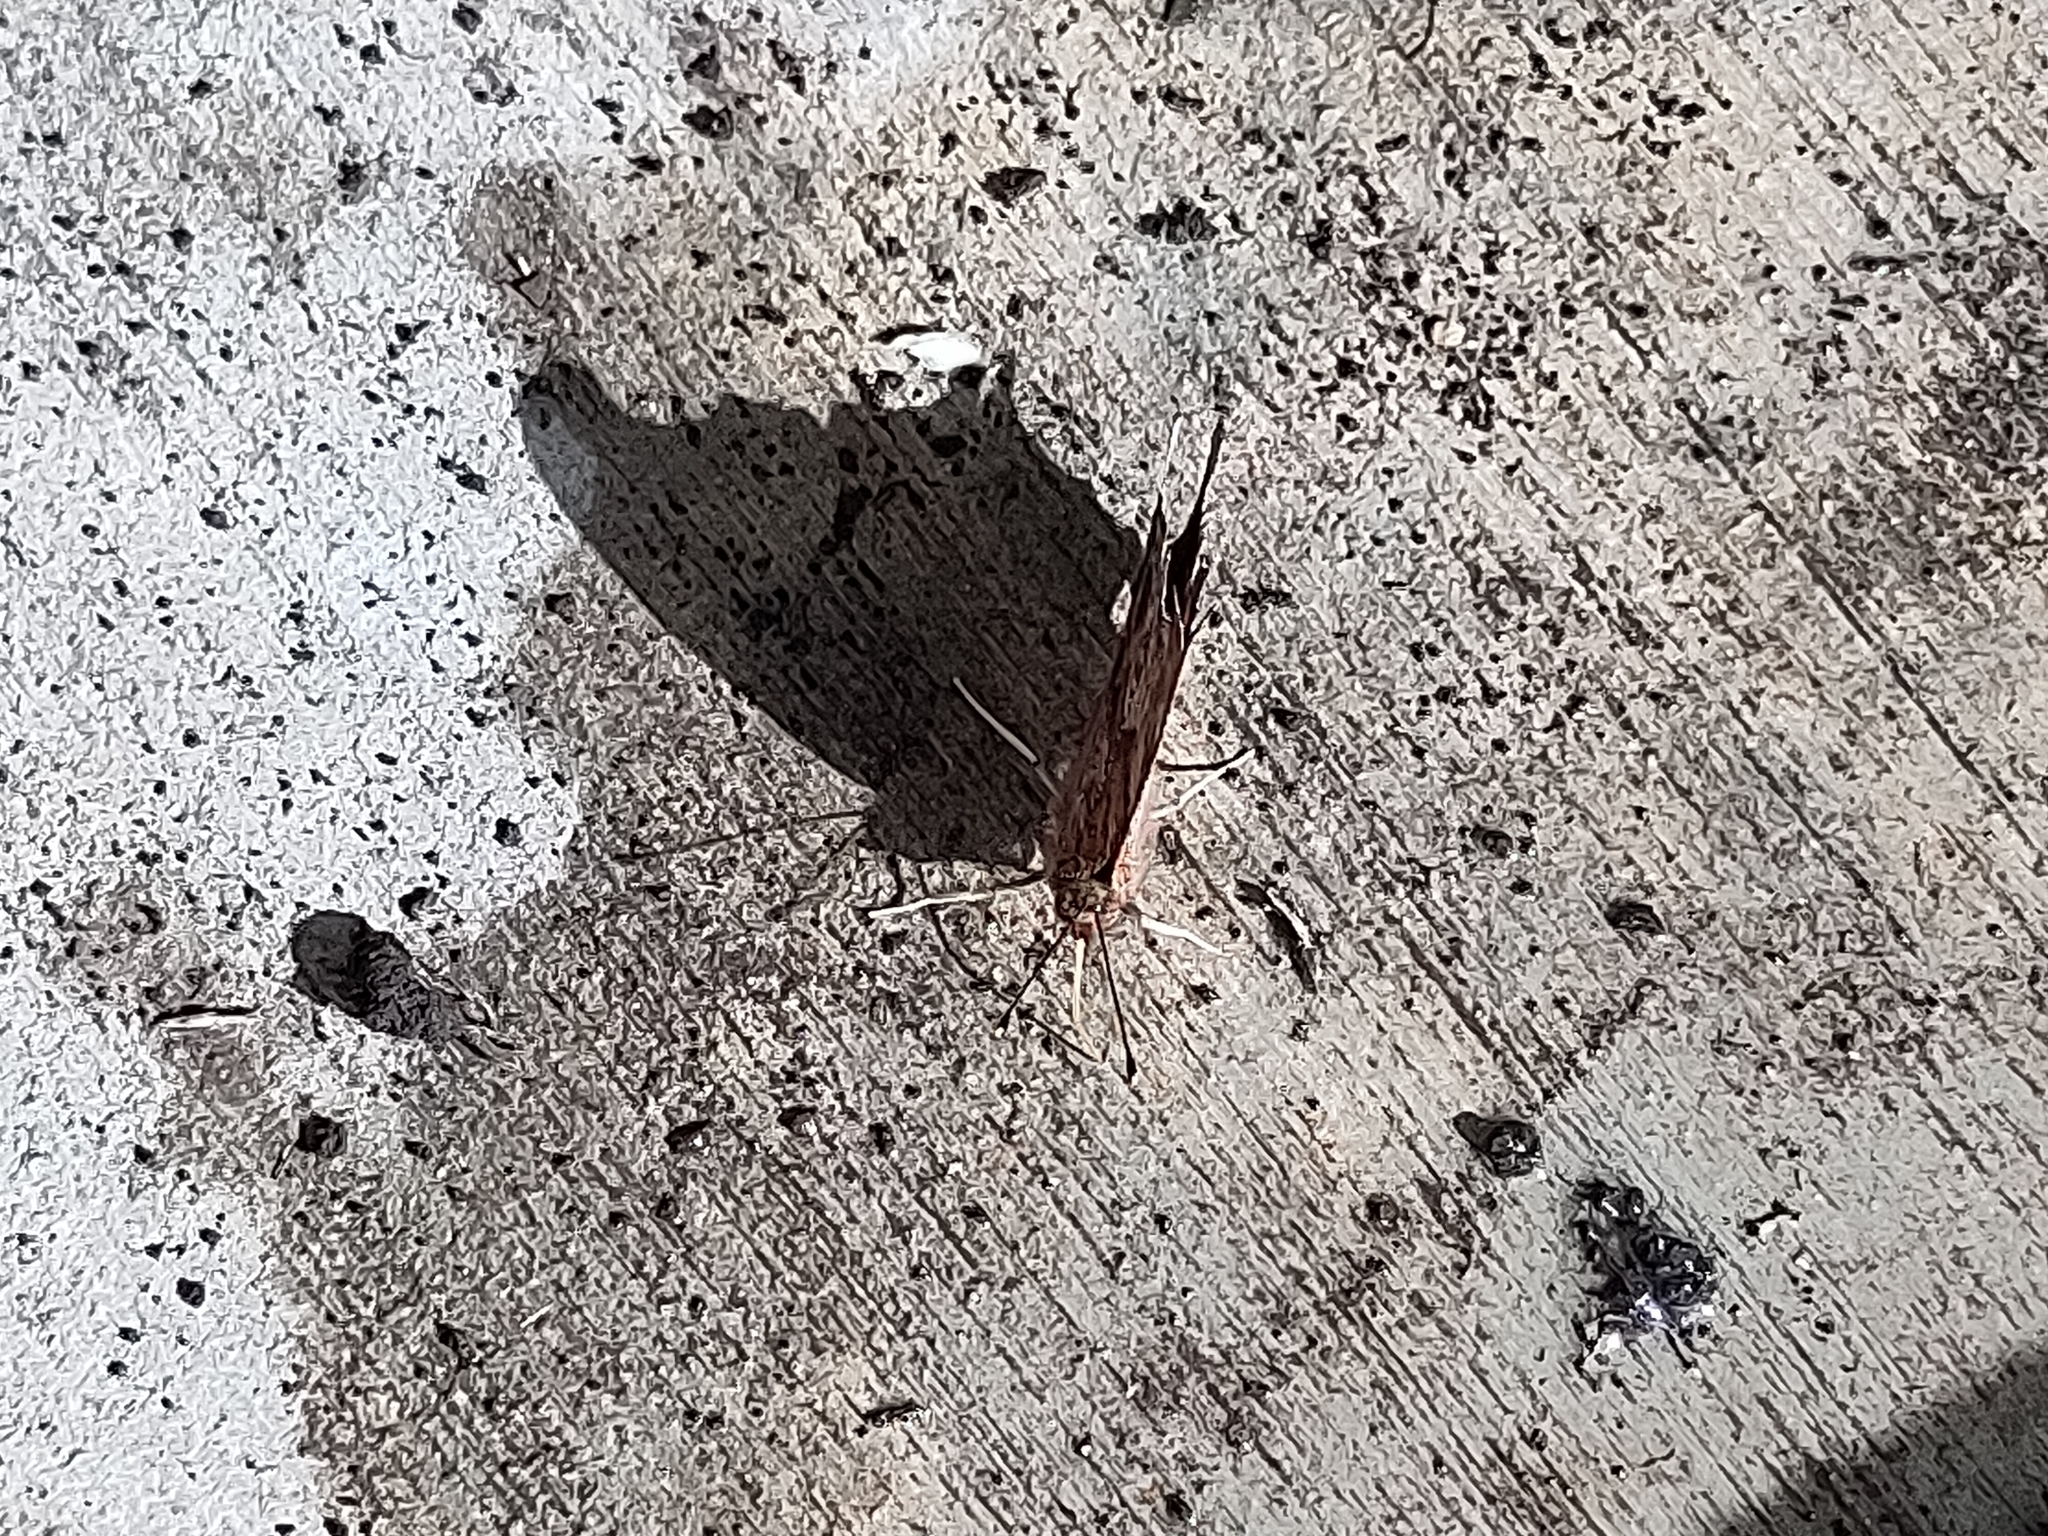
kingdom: Animalia
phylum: Arthropoda
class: Insecta
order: Lepidoptera
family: Nymphalidae
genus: Polygonia
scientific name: Polygonia interrogationis
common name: Question mark
